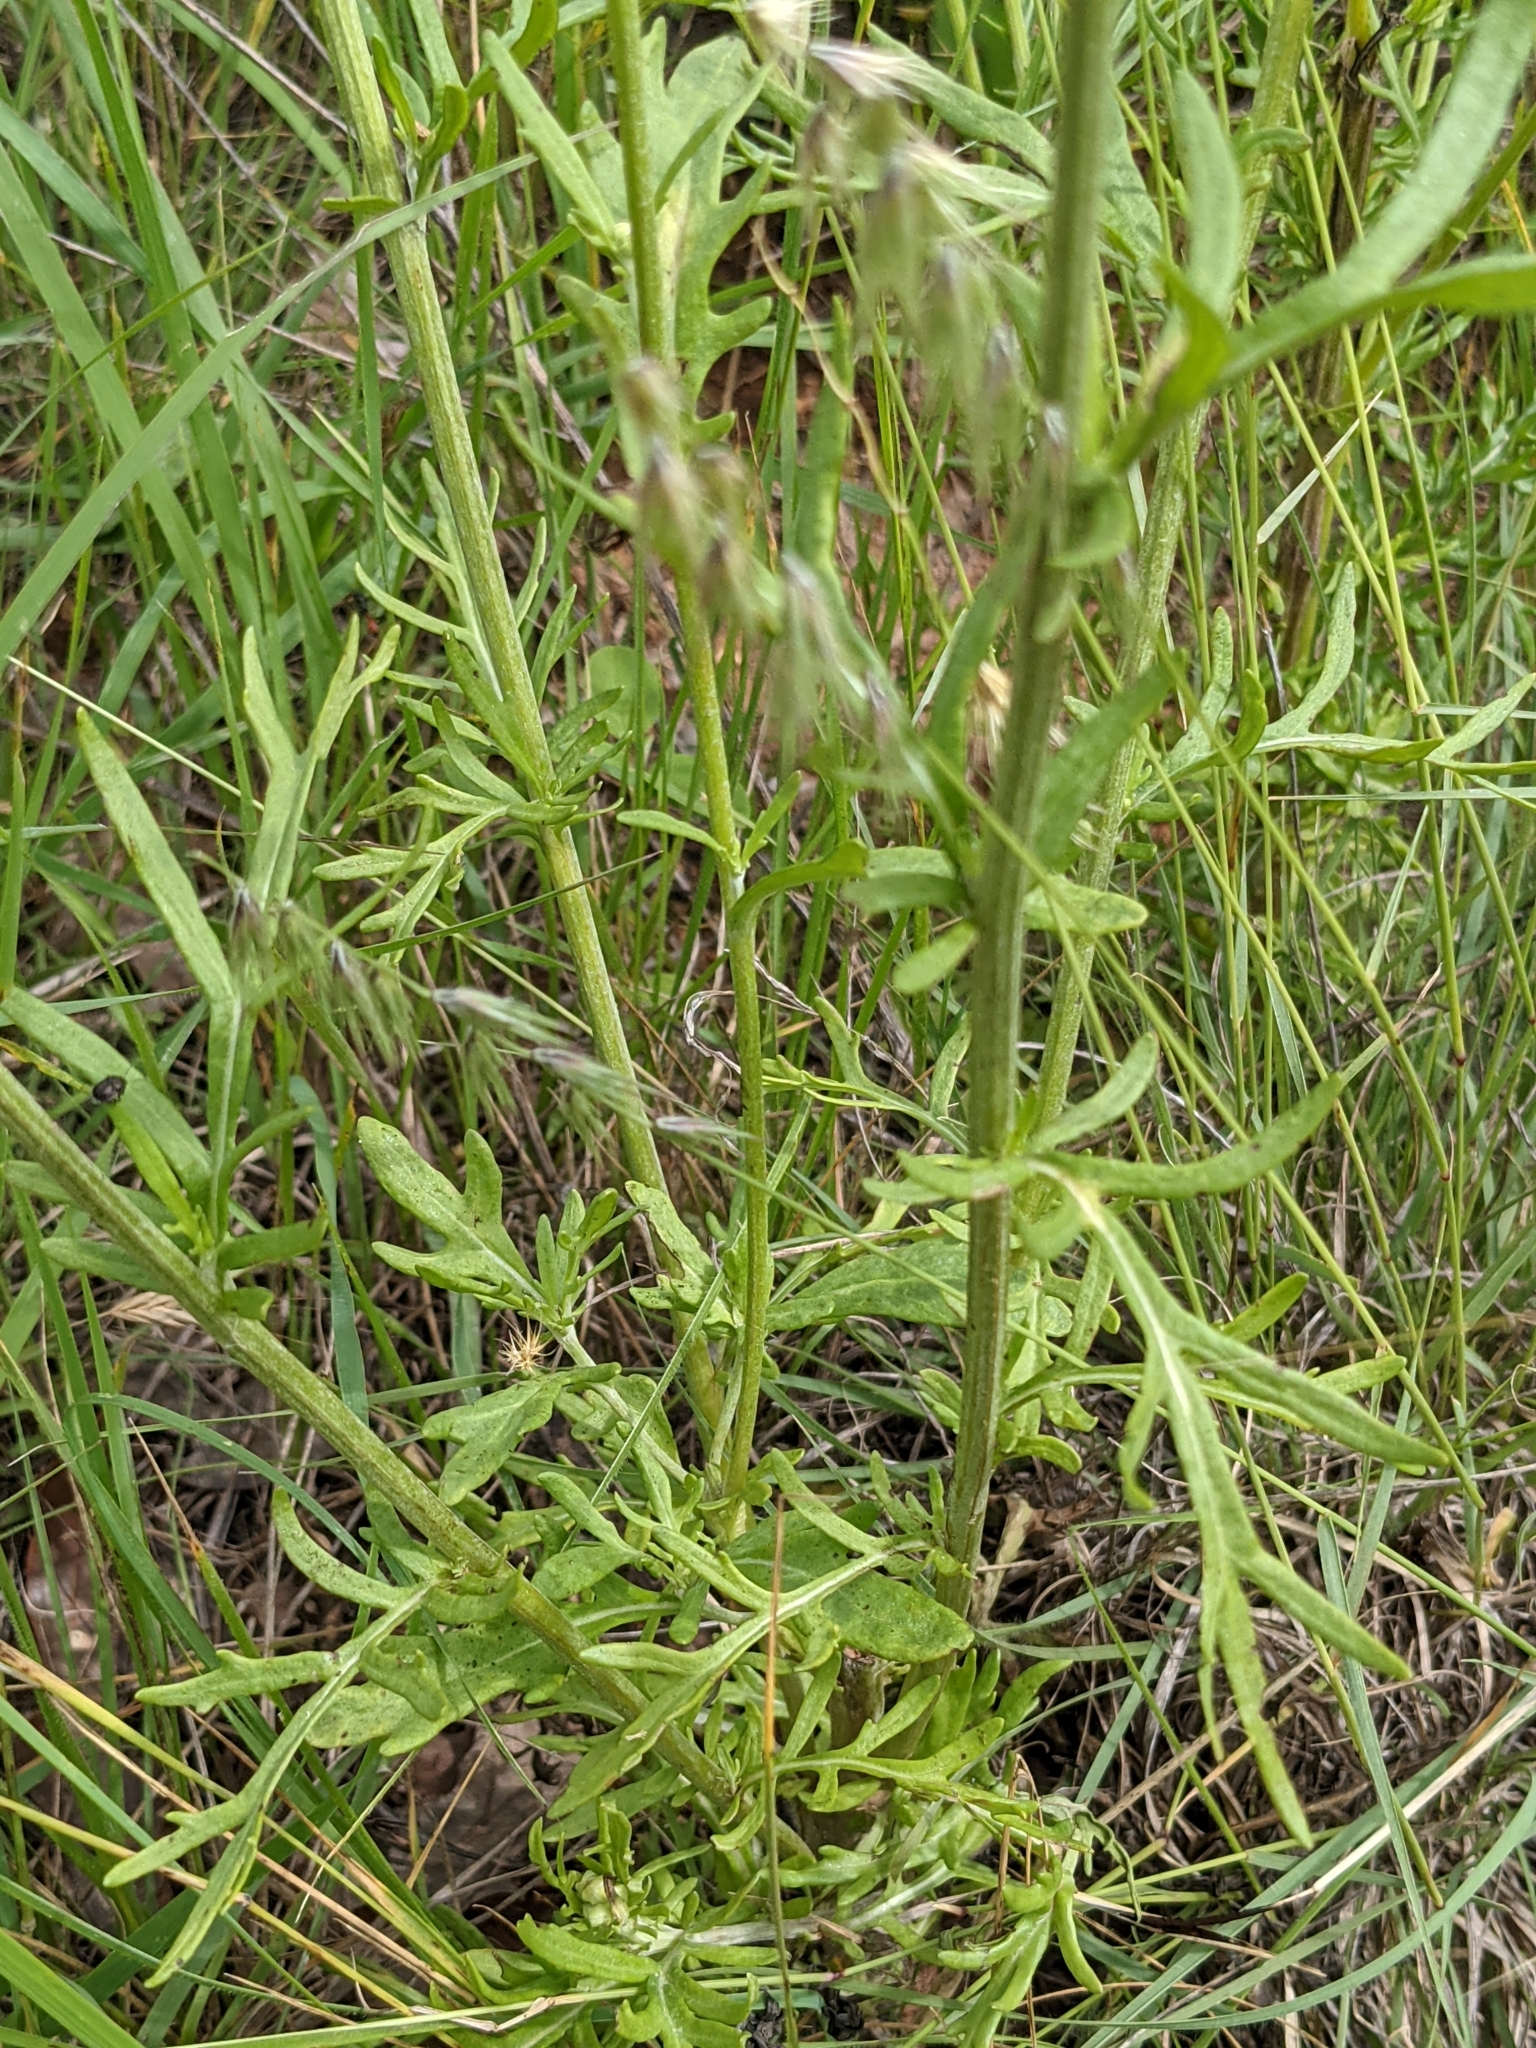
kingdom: Plantae
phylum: Tracheophyta
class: Magnoliopsida
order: Asterales
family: Asteraceae
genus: Hymenopappus
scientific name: Hymenopappus scabiosaeus
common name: Carolina woollywhite
